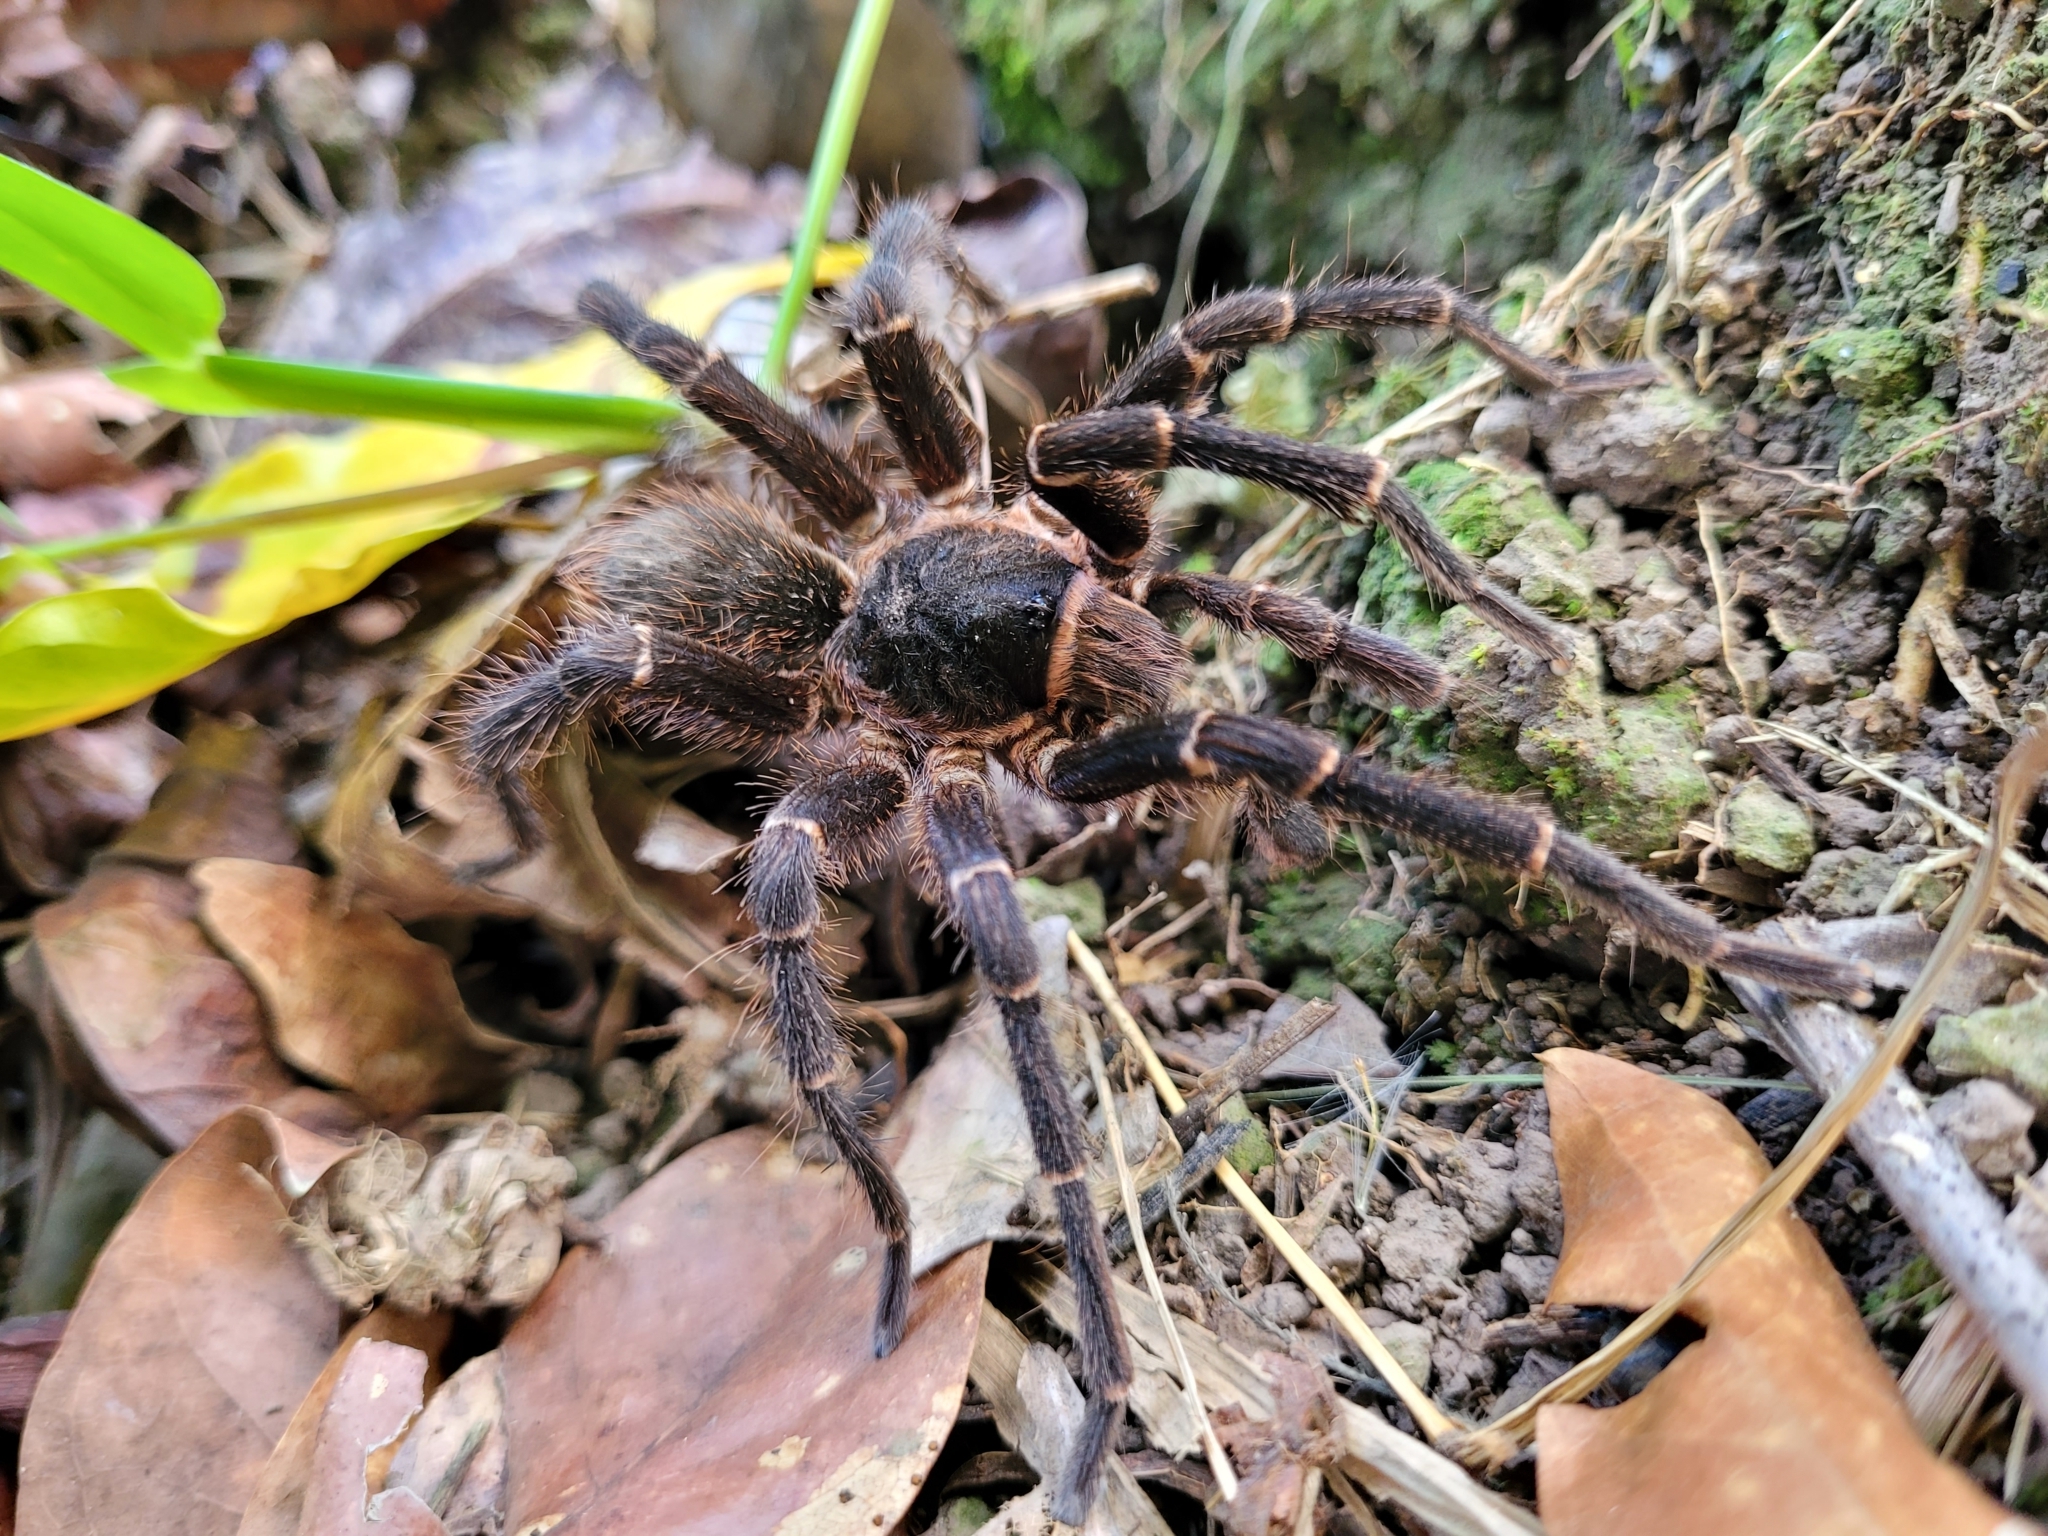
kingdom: Animalia
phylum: Arthropoda
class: Arachnida
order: Araneae
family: Theraphosidae
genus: Cyrtopholis
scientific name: Cyrtopholis portoricae
